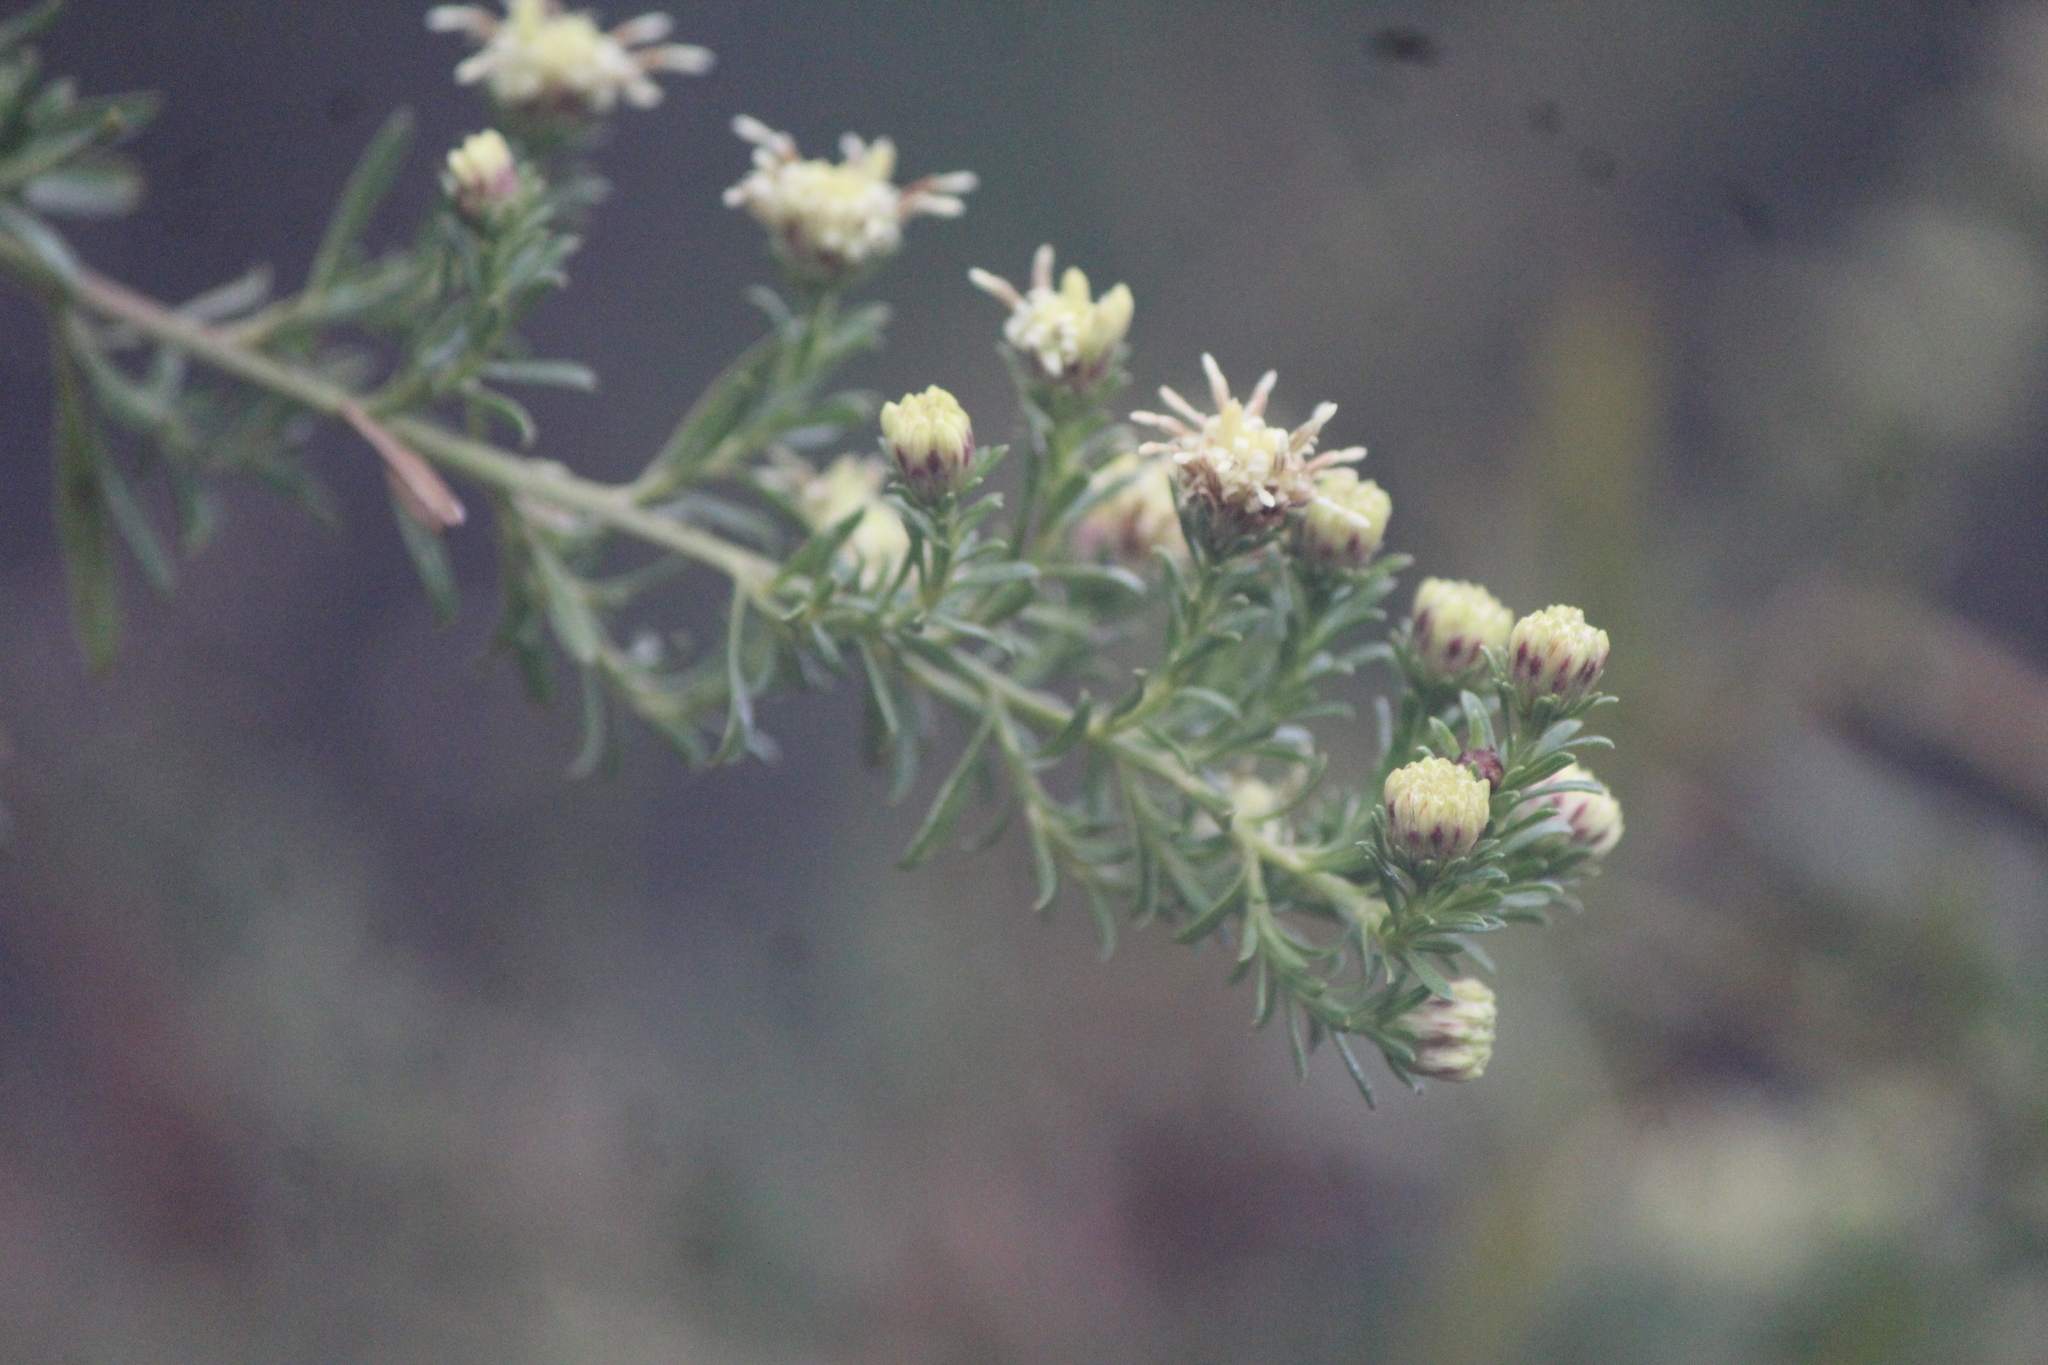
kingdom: Plantae
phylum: Tracheophyta
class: Magnoliopsida
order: Asterales
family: Asteraceae
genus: Baccharis
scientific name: Baccharis ramiflora
